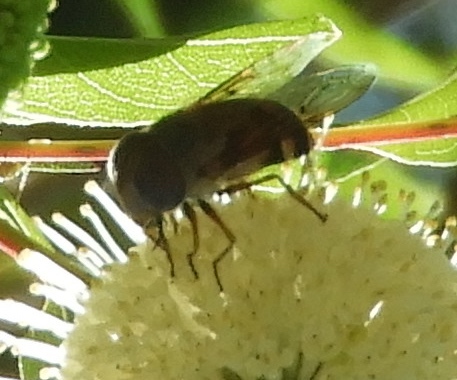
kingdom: Animalia
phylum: Arthropoda
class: Insecta
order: Diptera
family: Syrphidae
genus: Copestylum
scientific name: Copestylum macrocephalum
